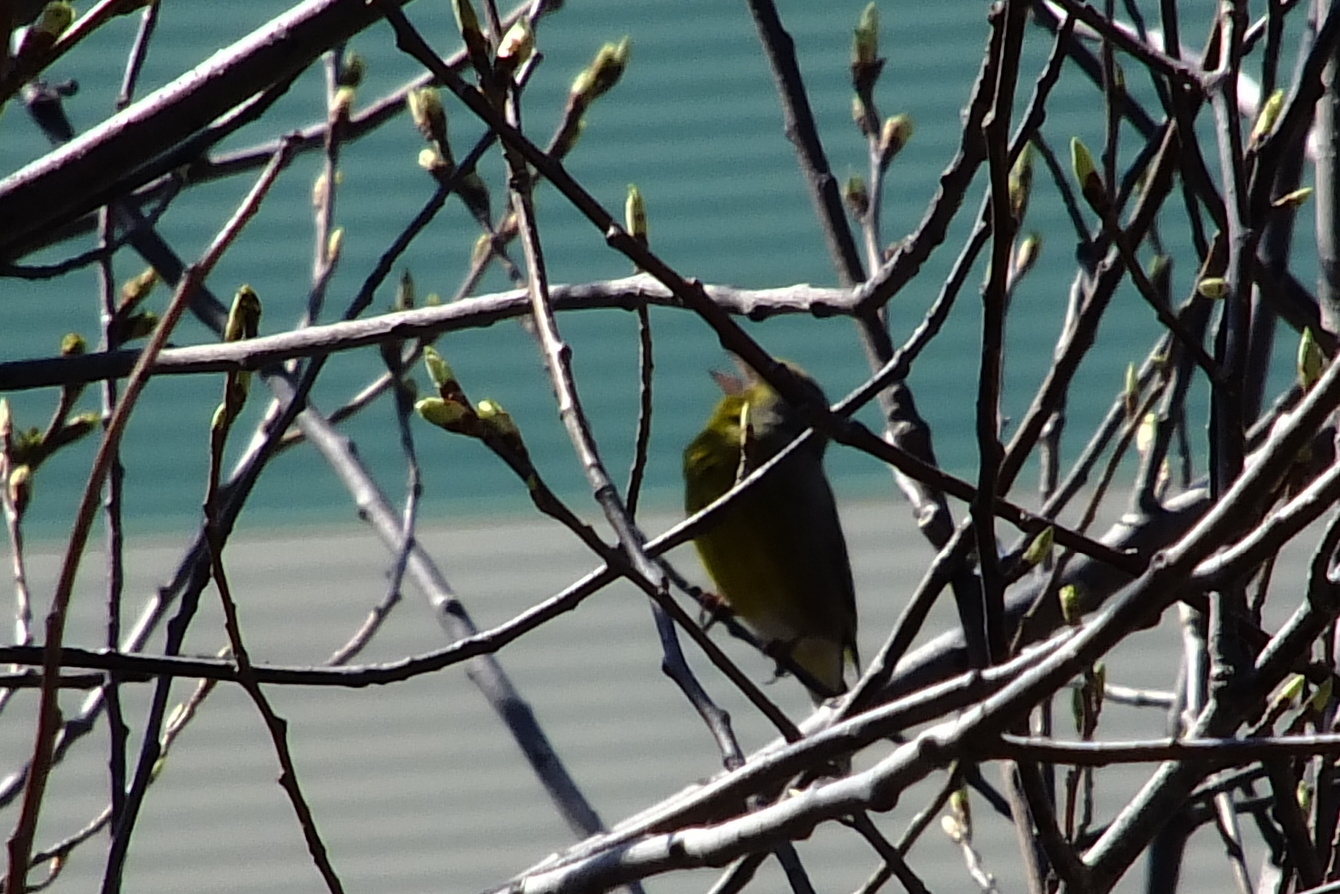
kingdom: Plantae
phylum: Tracheophyta
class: Liliopsida
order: Poales
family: Poaceae
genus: Chloris
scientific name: Chloris chloris
